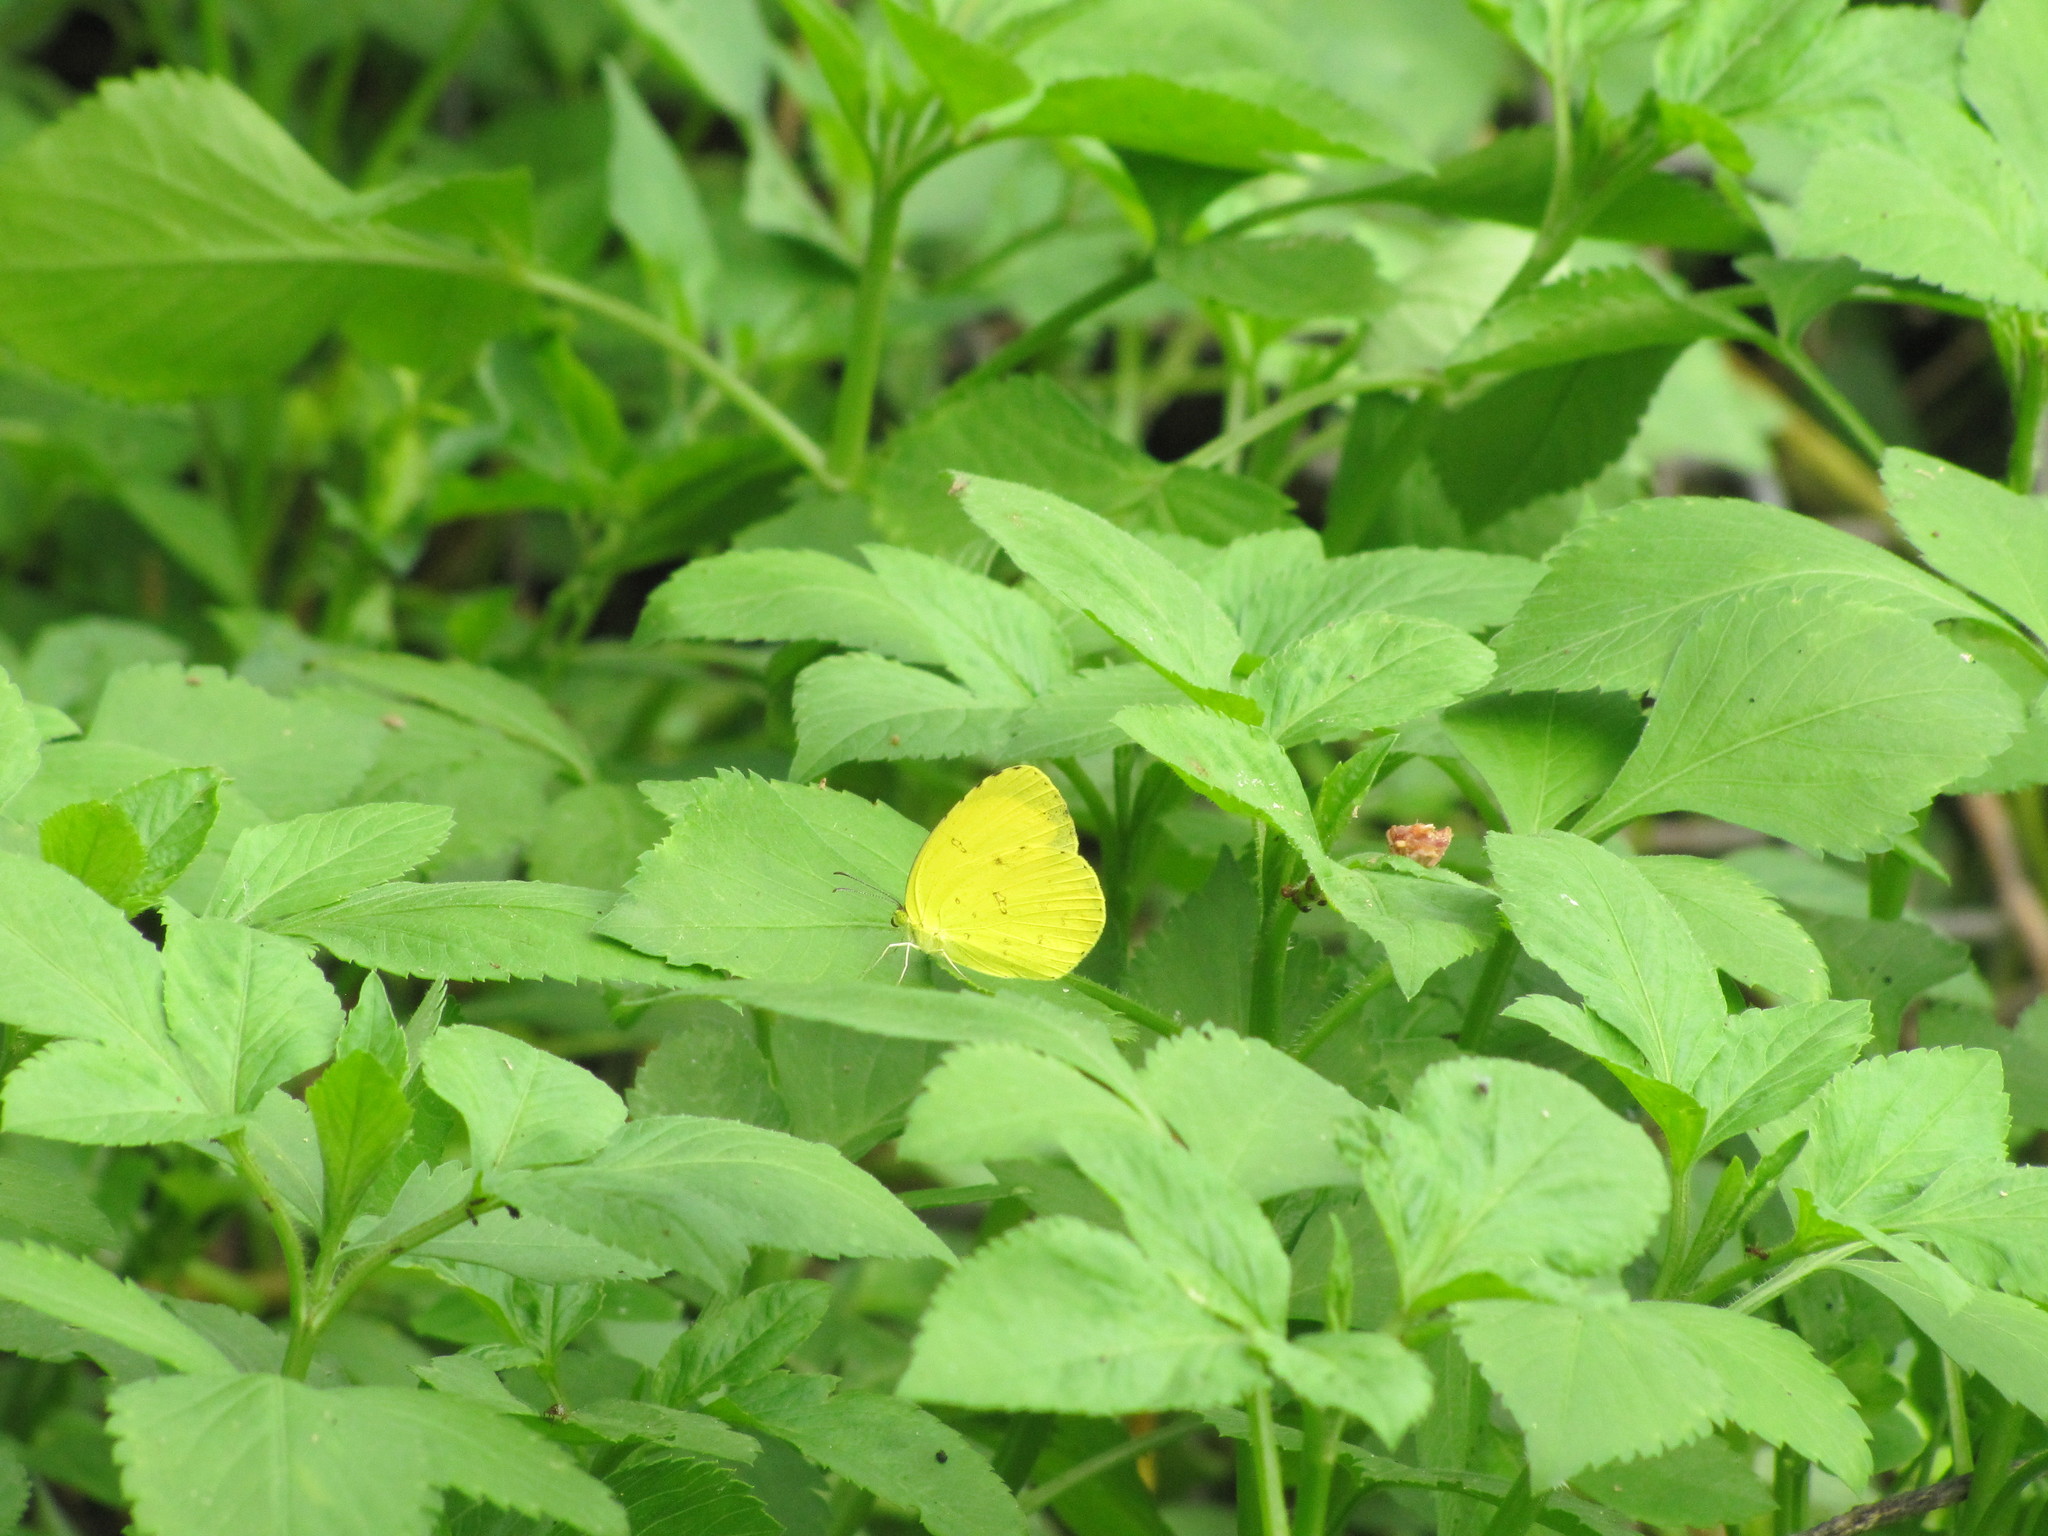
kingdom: Animalia
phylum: Arthropoda
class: Insecta
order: Lepidoptera
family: Pieridae
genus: Eurema
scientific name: Eurema hecabe
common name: Pale grass yellow
